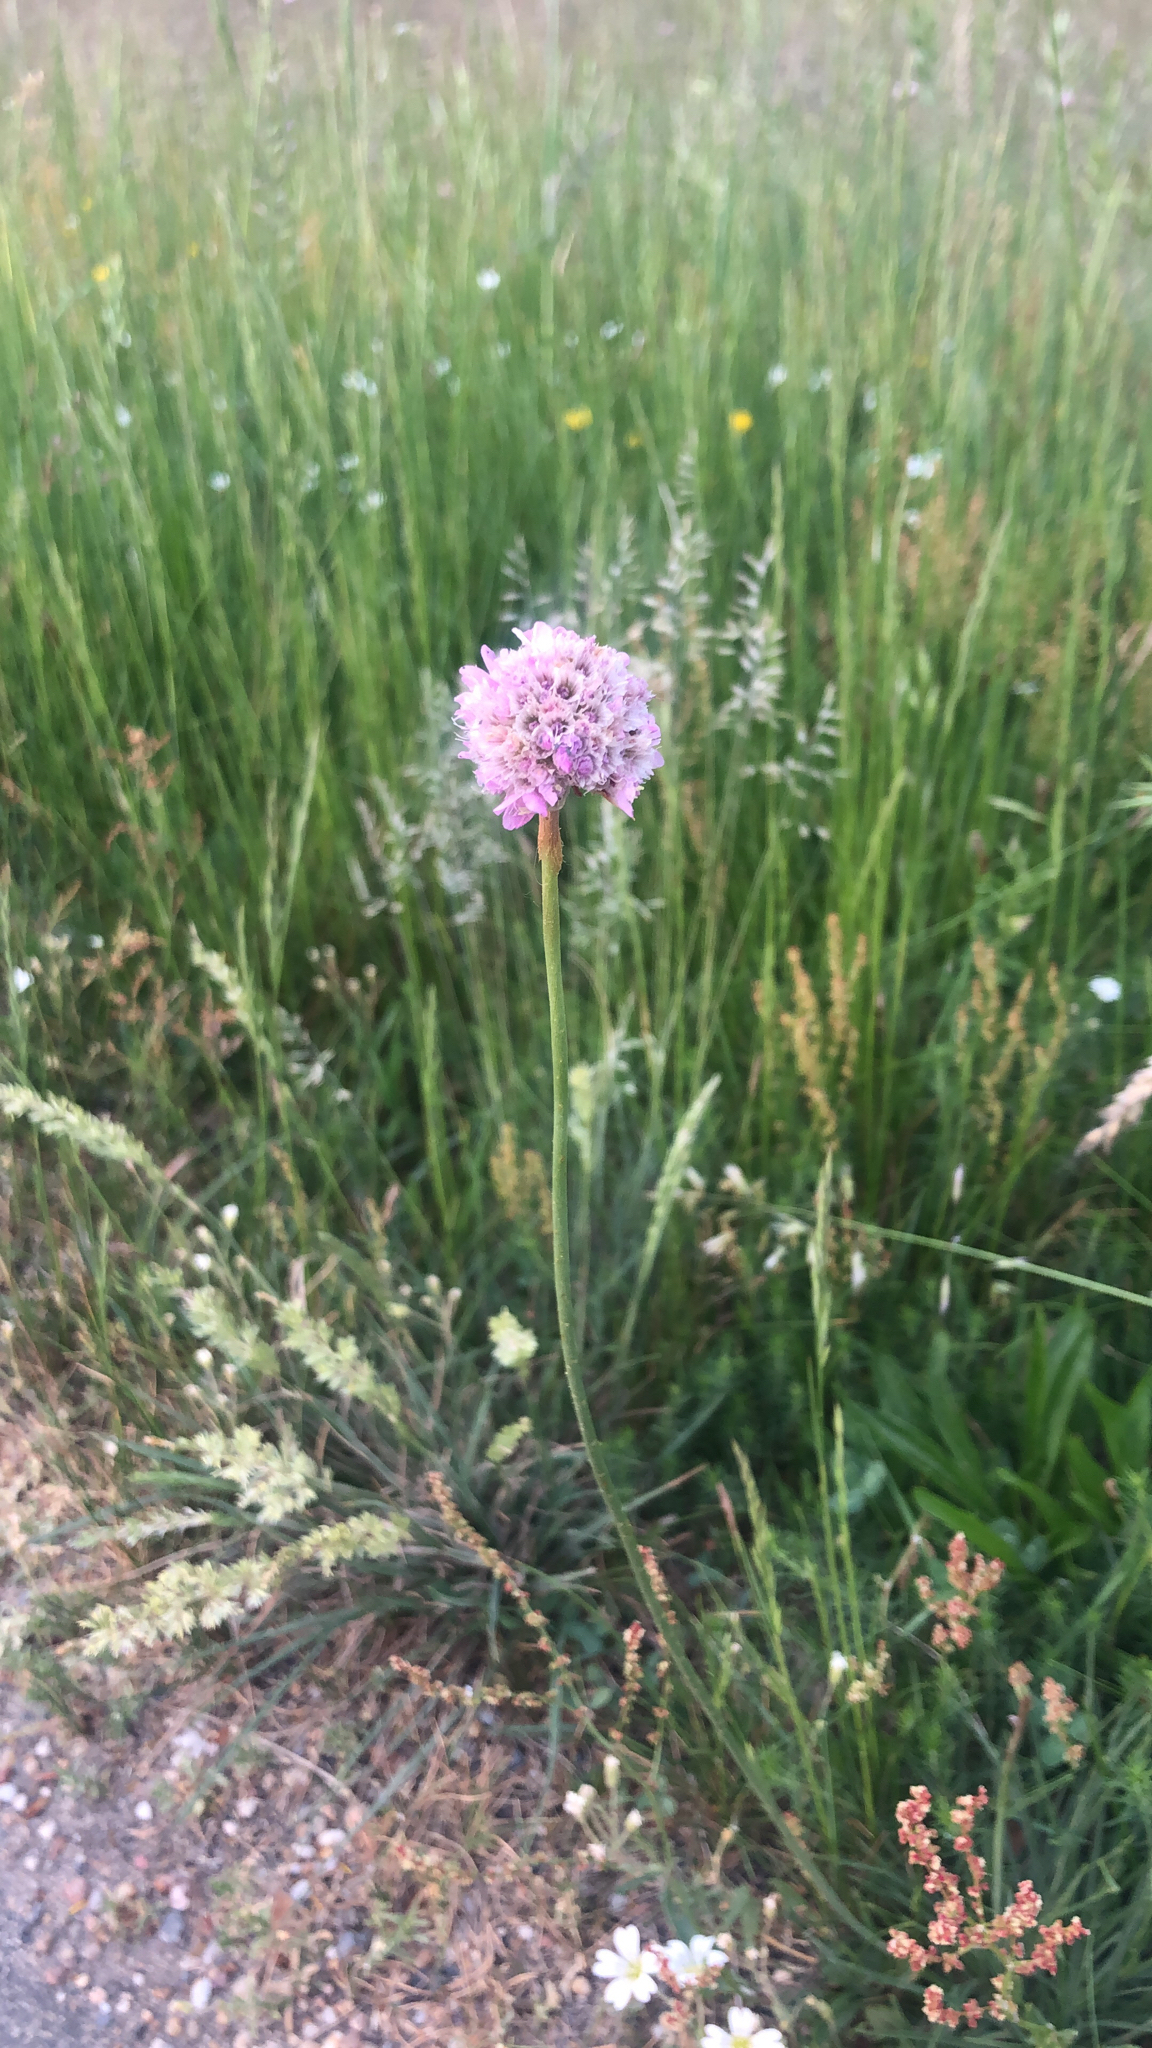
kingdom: Plantae
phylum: Tracheophyta
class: Magnoliopsida
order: Caryophyllales
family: Plumbaginaceae
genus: Armeria
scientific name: Armeria maritima
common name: Thrift
